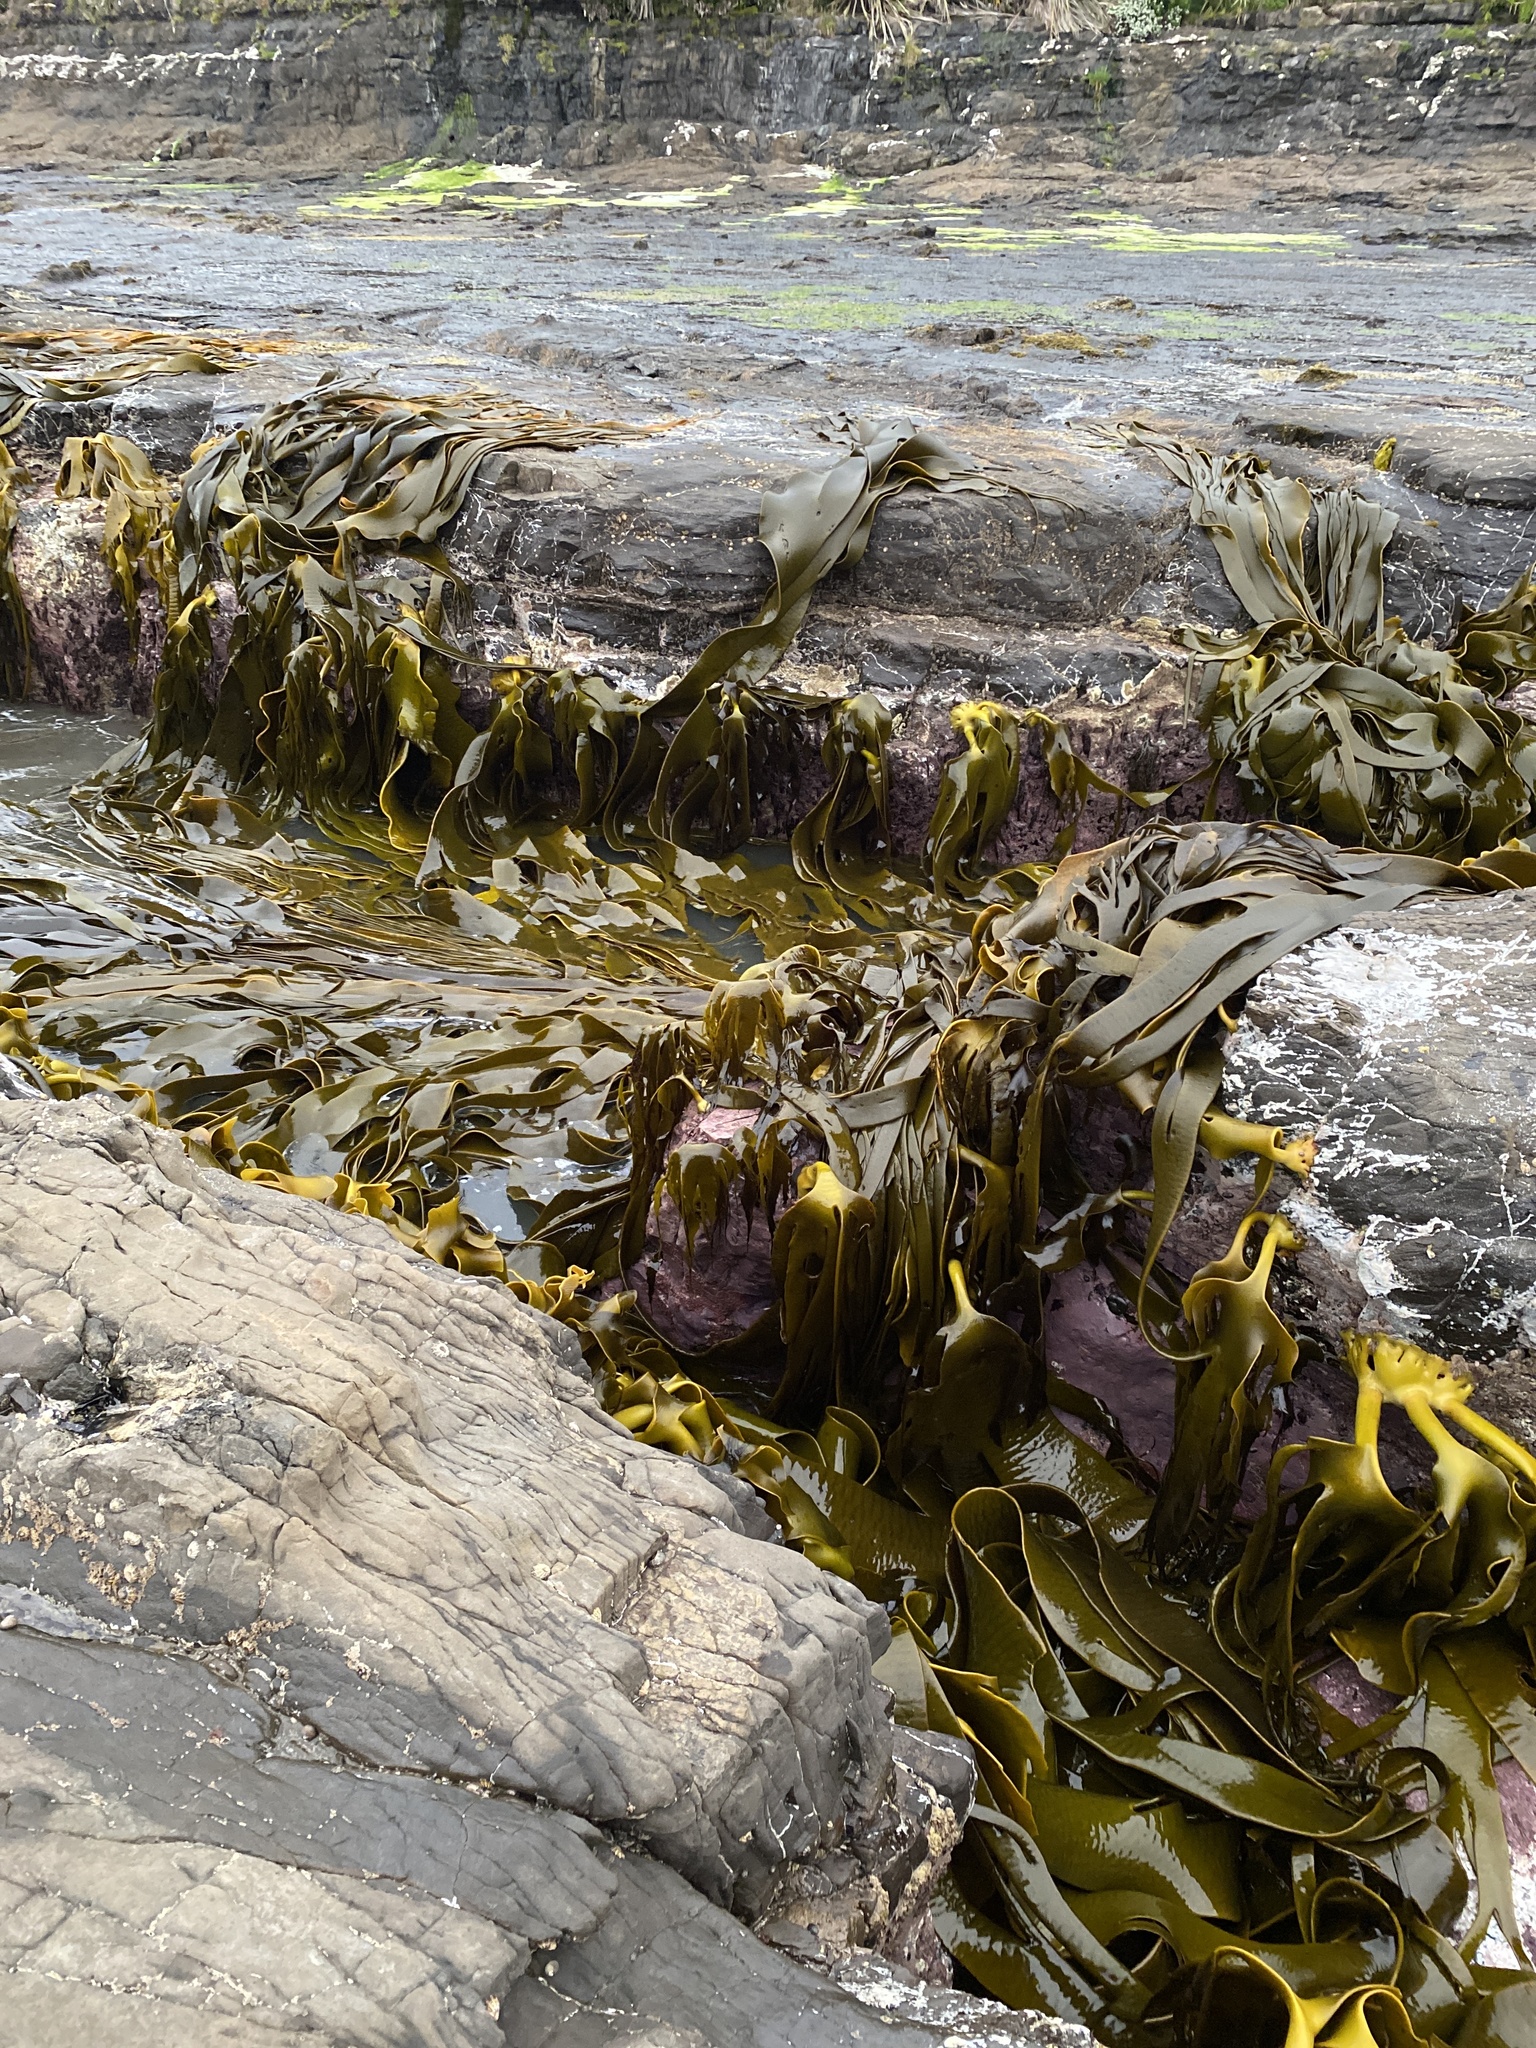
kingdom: Chromista
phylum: Ochrophyta
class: Phaeophyceae
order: Fucales
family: Durvillaeaceae
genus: Durvillaea
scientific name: Durvillaea antarctica
